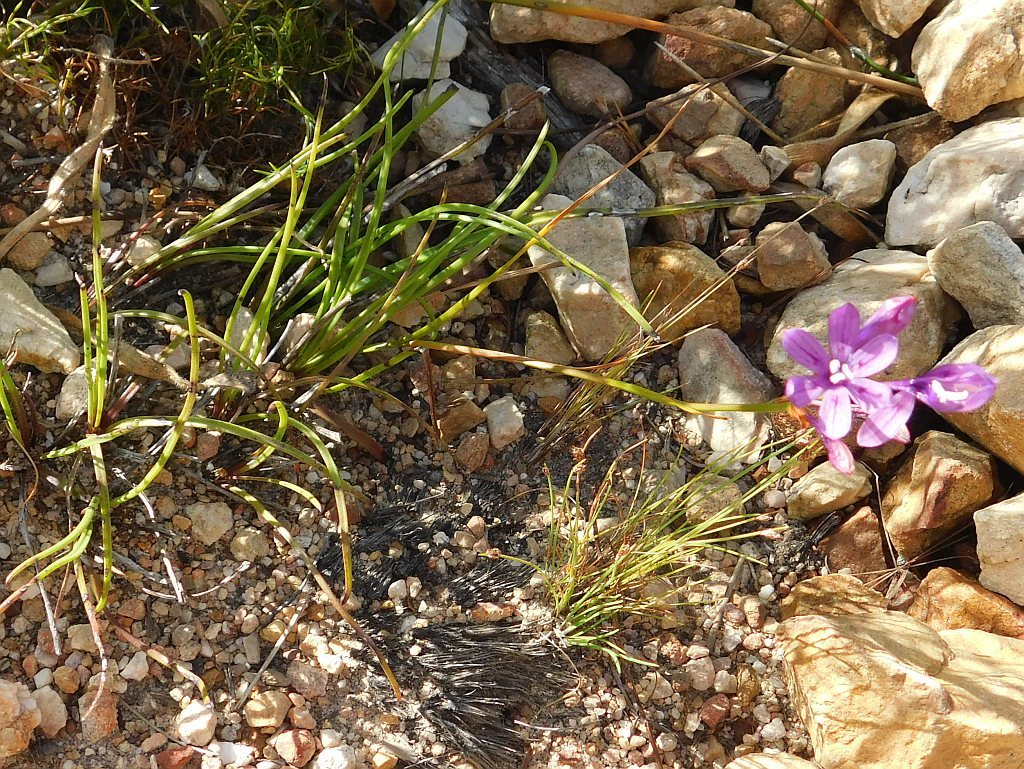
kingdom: Plantae
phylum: Tracheophyta
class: Liliopsida
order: Asparagales
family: Iridaceae
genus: Thereianthus
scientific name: Thereianthus bracteolatus
